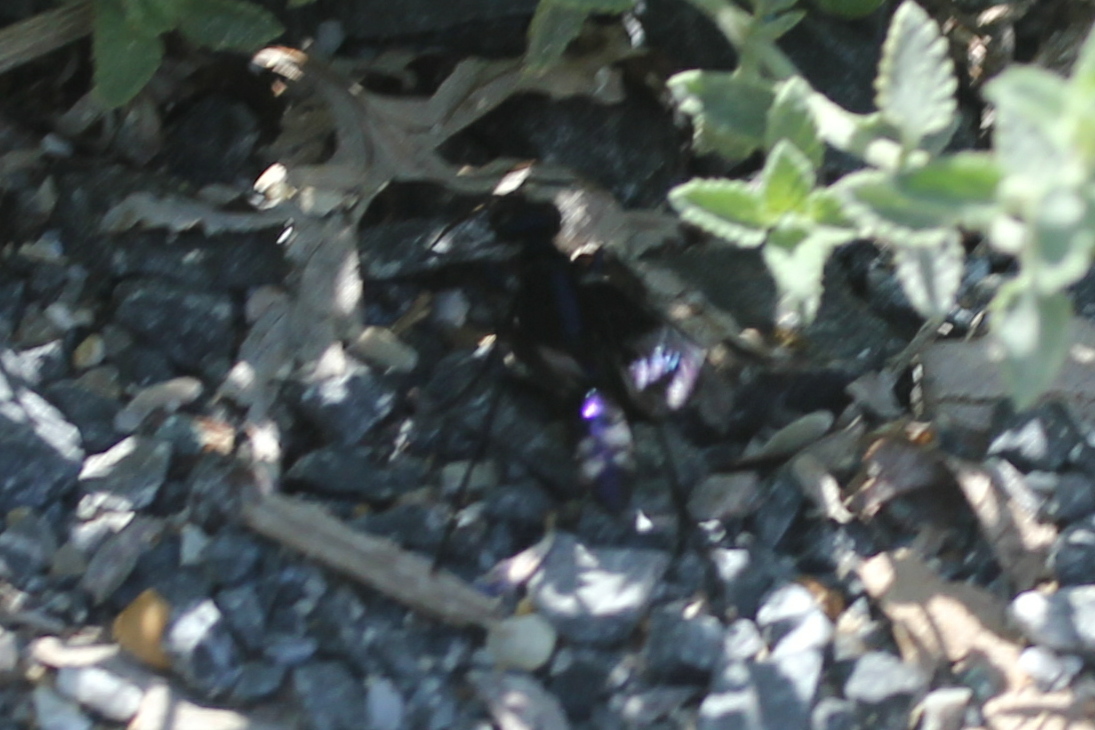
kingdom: Animalia
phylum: Arthropoda
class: Insecta
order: Hymenoptera
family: Sphecidae
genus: Chlorion
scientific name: Chlorion aerarium
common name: Steel-blue cricket hunter
